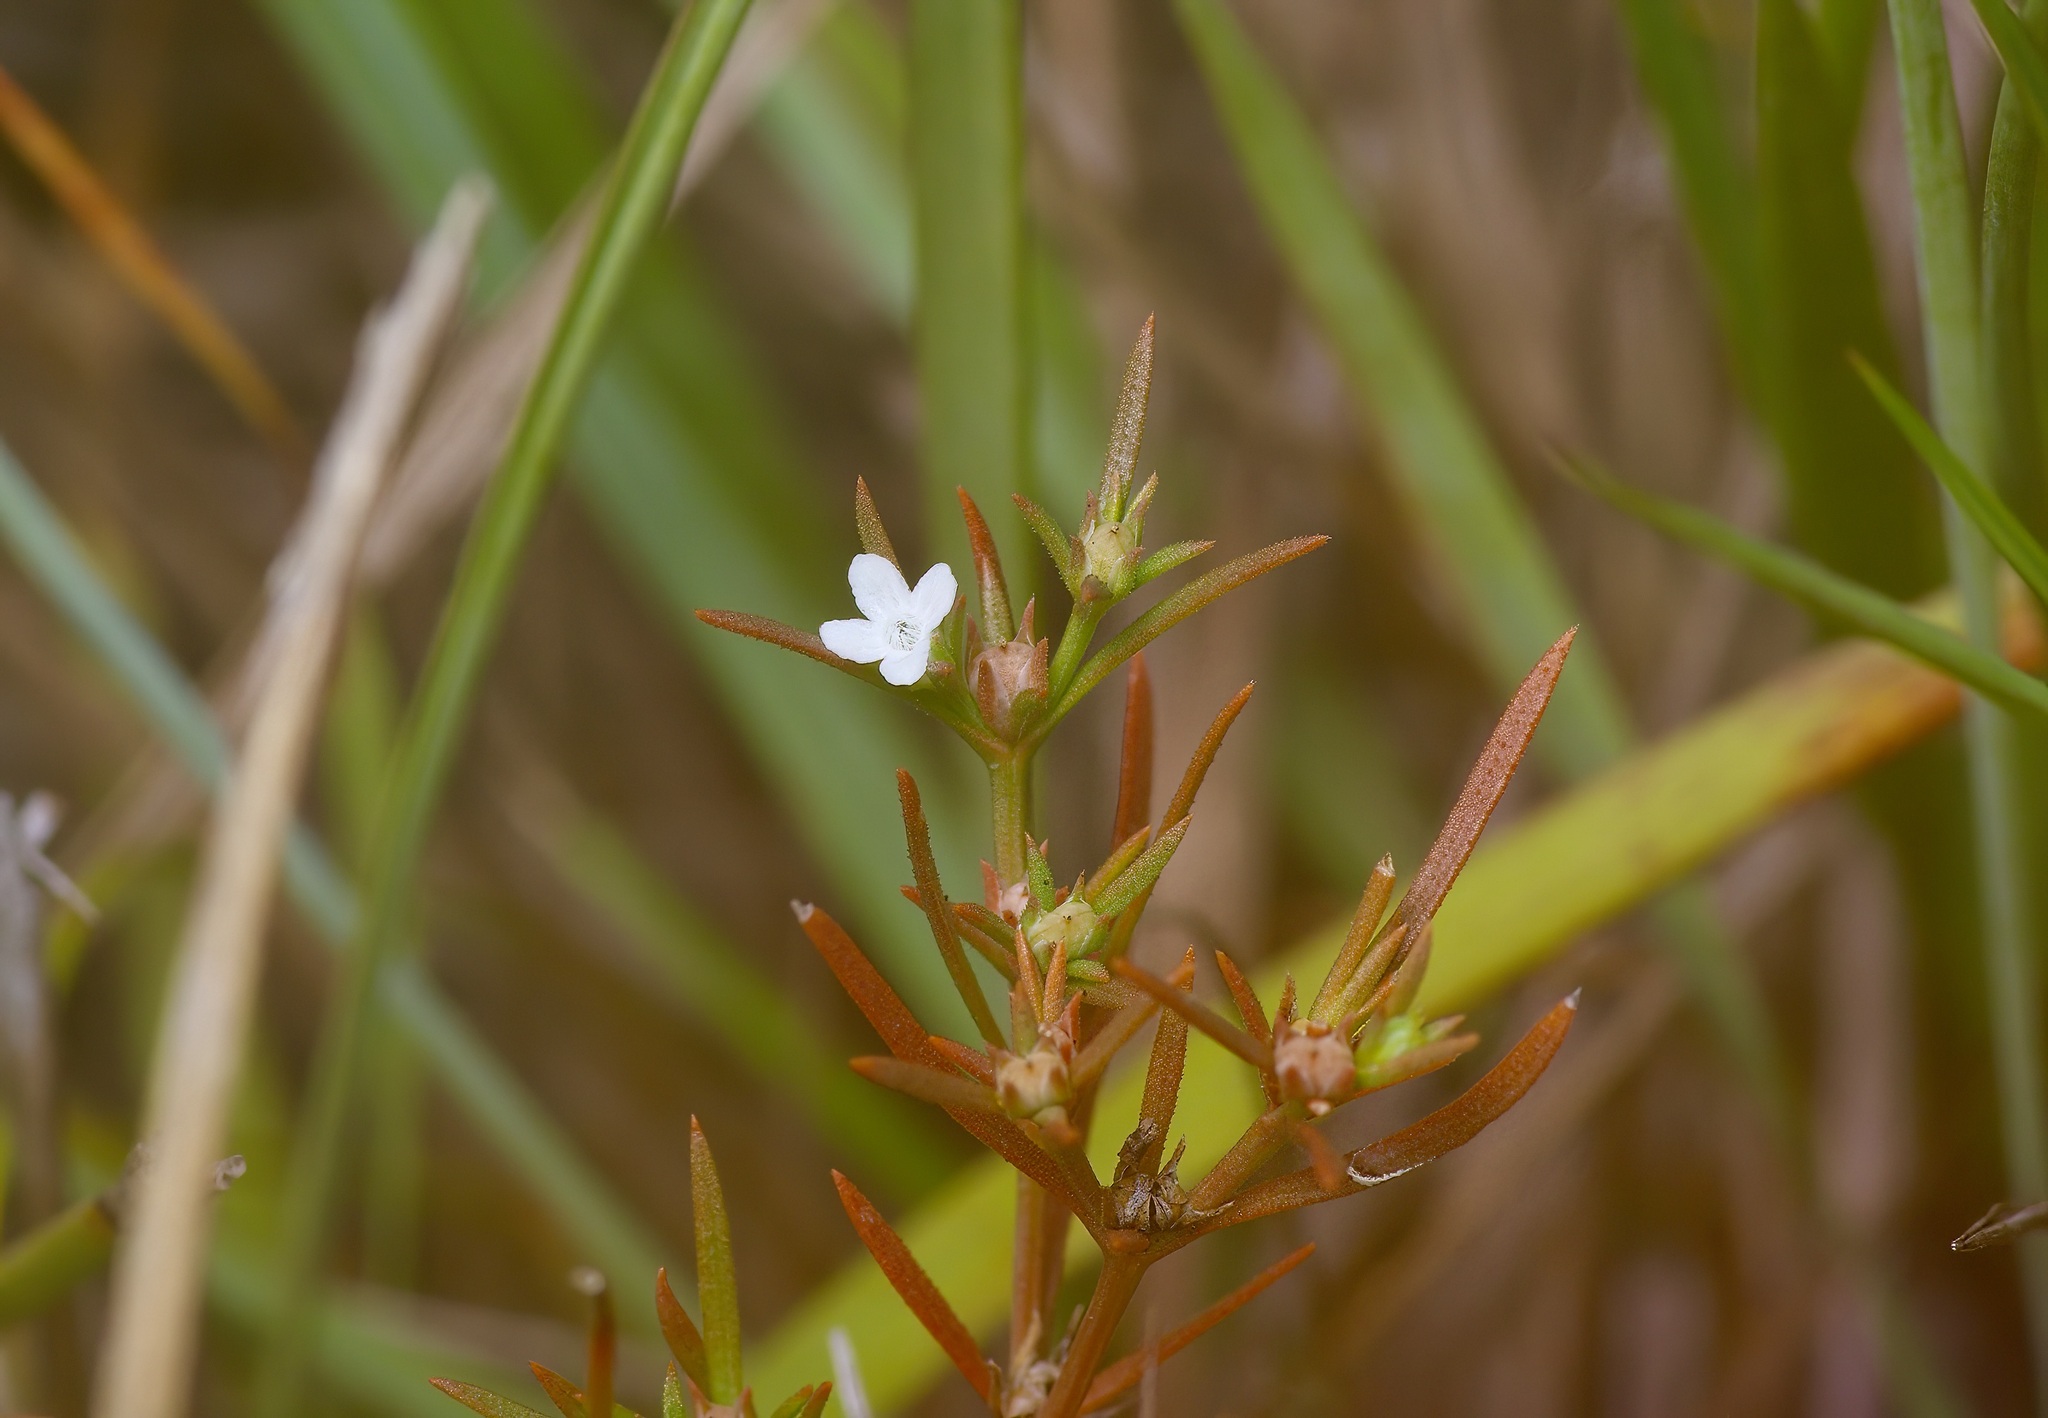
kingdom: Plantae
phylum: Tracheophyta
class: Magnoliopsida
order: Lamiales
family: Tetrachondraceae
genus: Polypremum
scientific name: Polypremum procumbens
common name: Juniper-leaf
